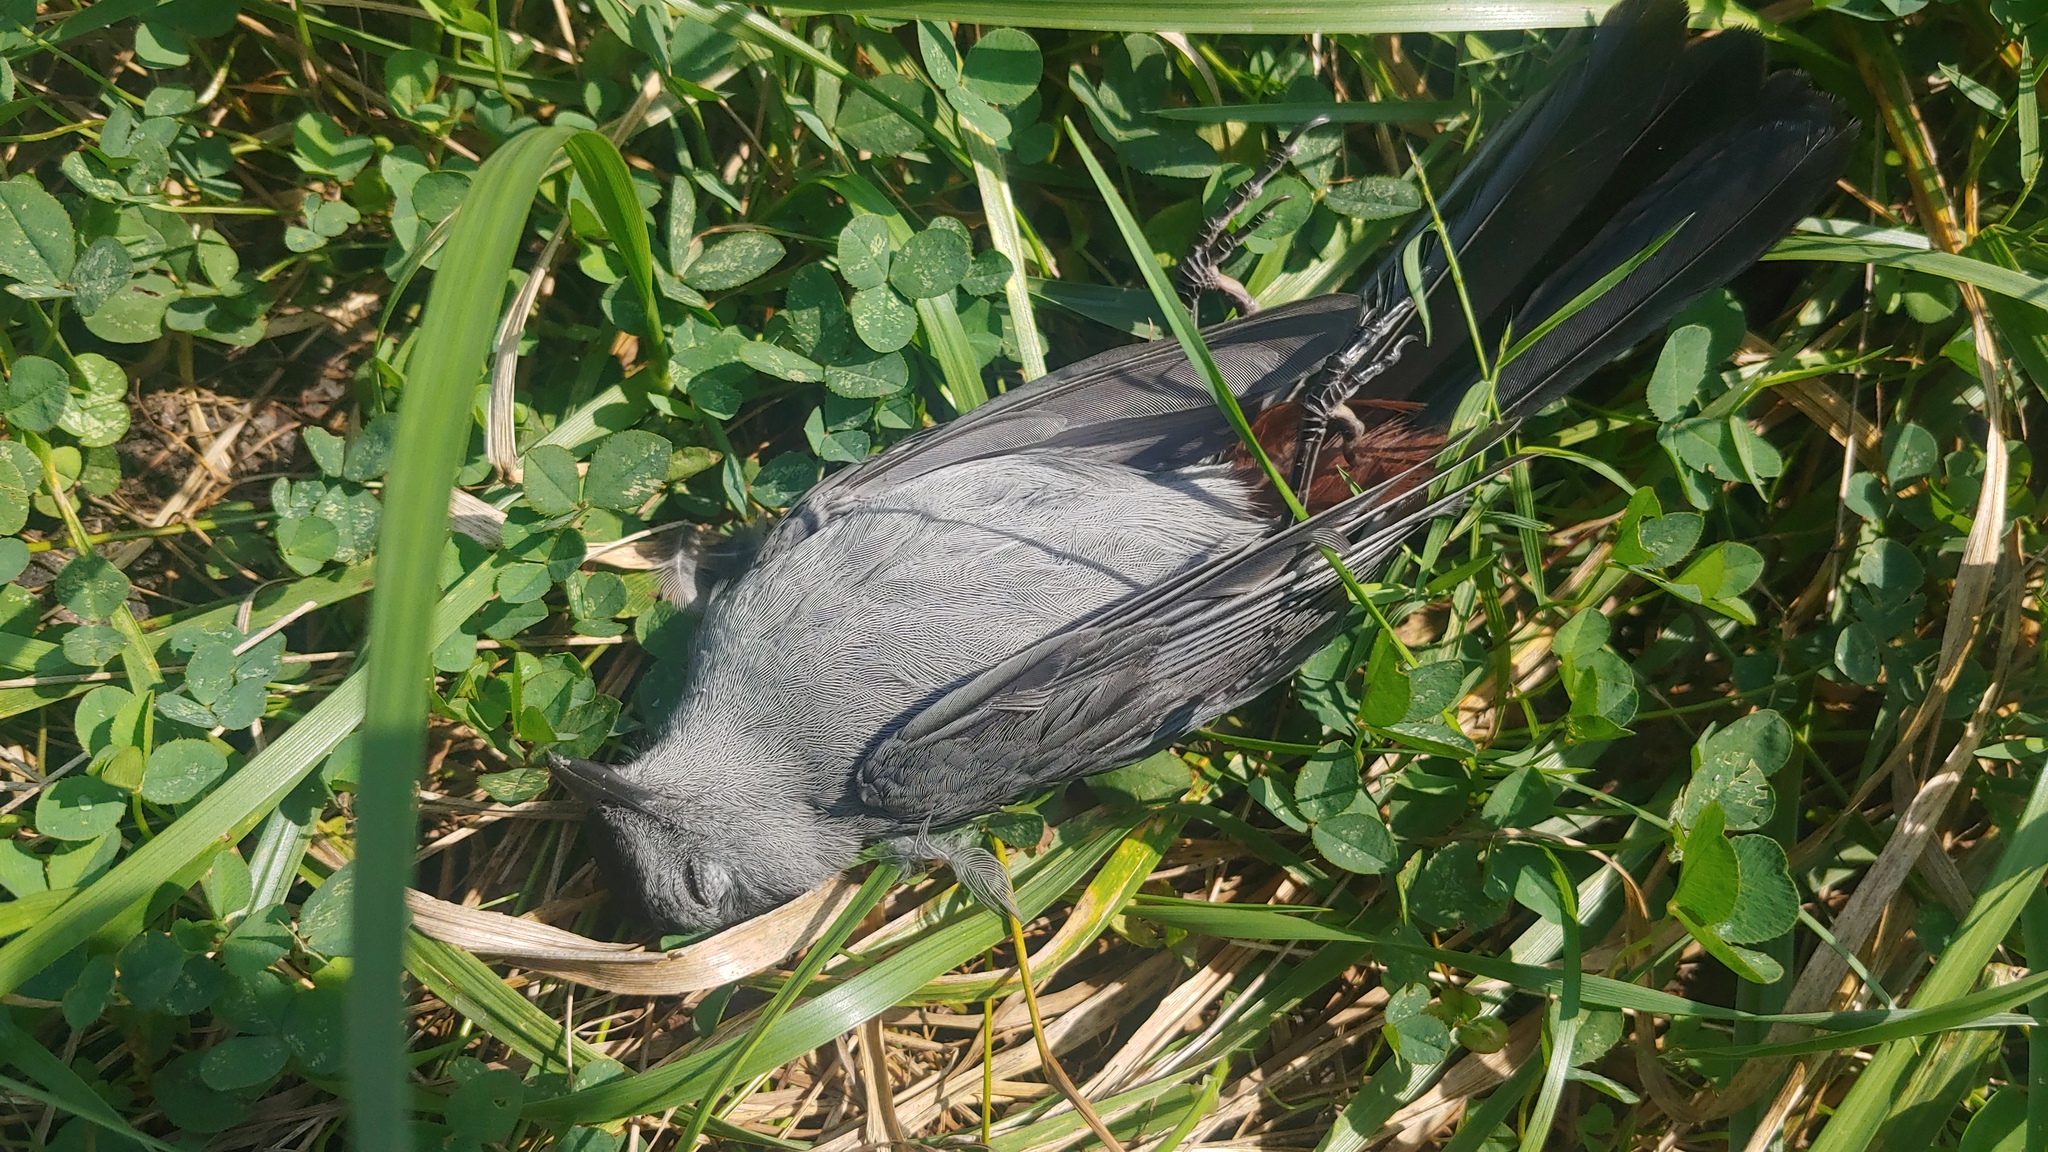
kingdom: Animalia
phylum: Chordata
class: Aves
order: Passeriformes
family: Mimidae
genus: Dumetella
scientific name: Dumetella carolinensis
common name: Gray catbird
